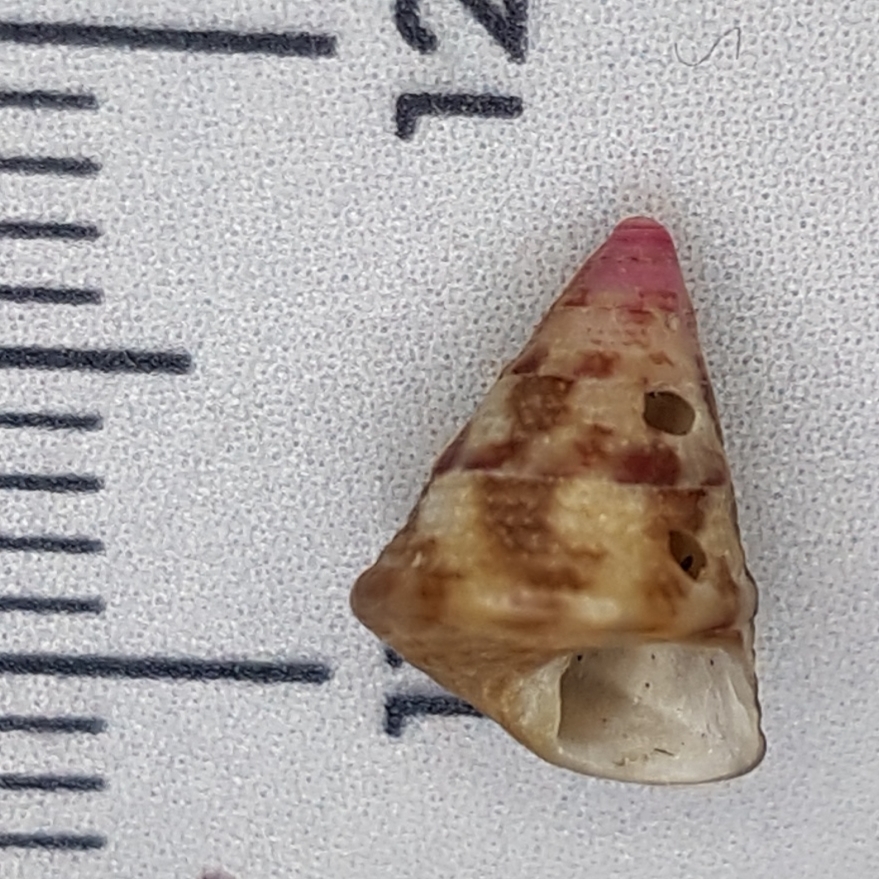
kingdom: Animalia
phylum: Mollusca
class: Gastropoda
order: Trochida
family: Trochidae
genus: Jujubinus
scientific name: Jujubinus exasperatus
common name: Rough top shell
